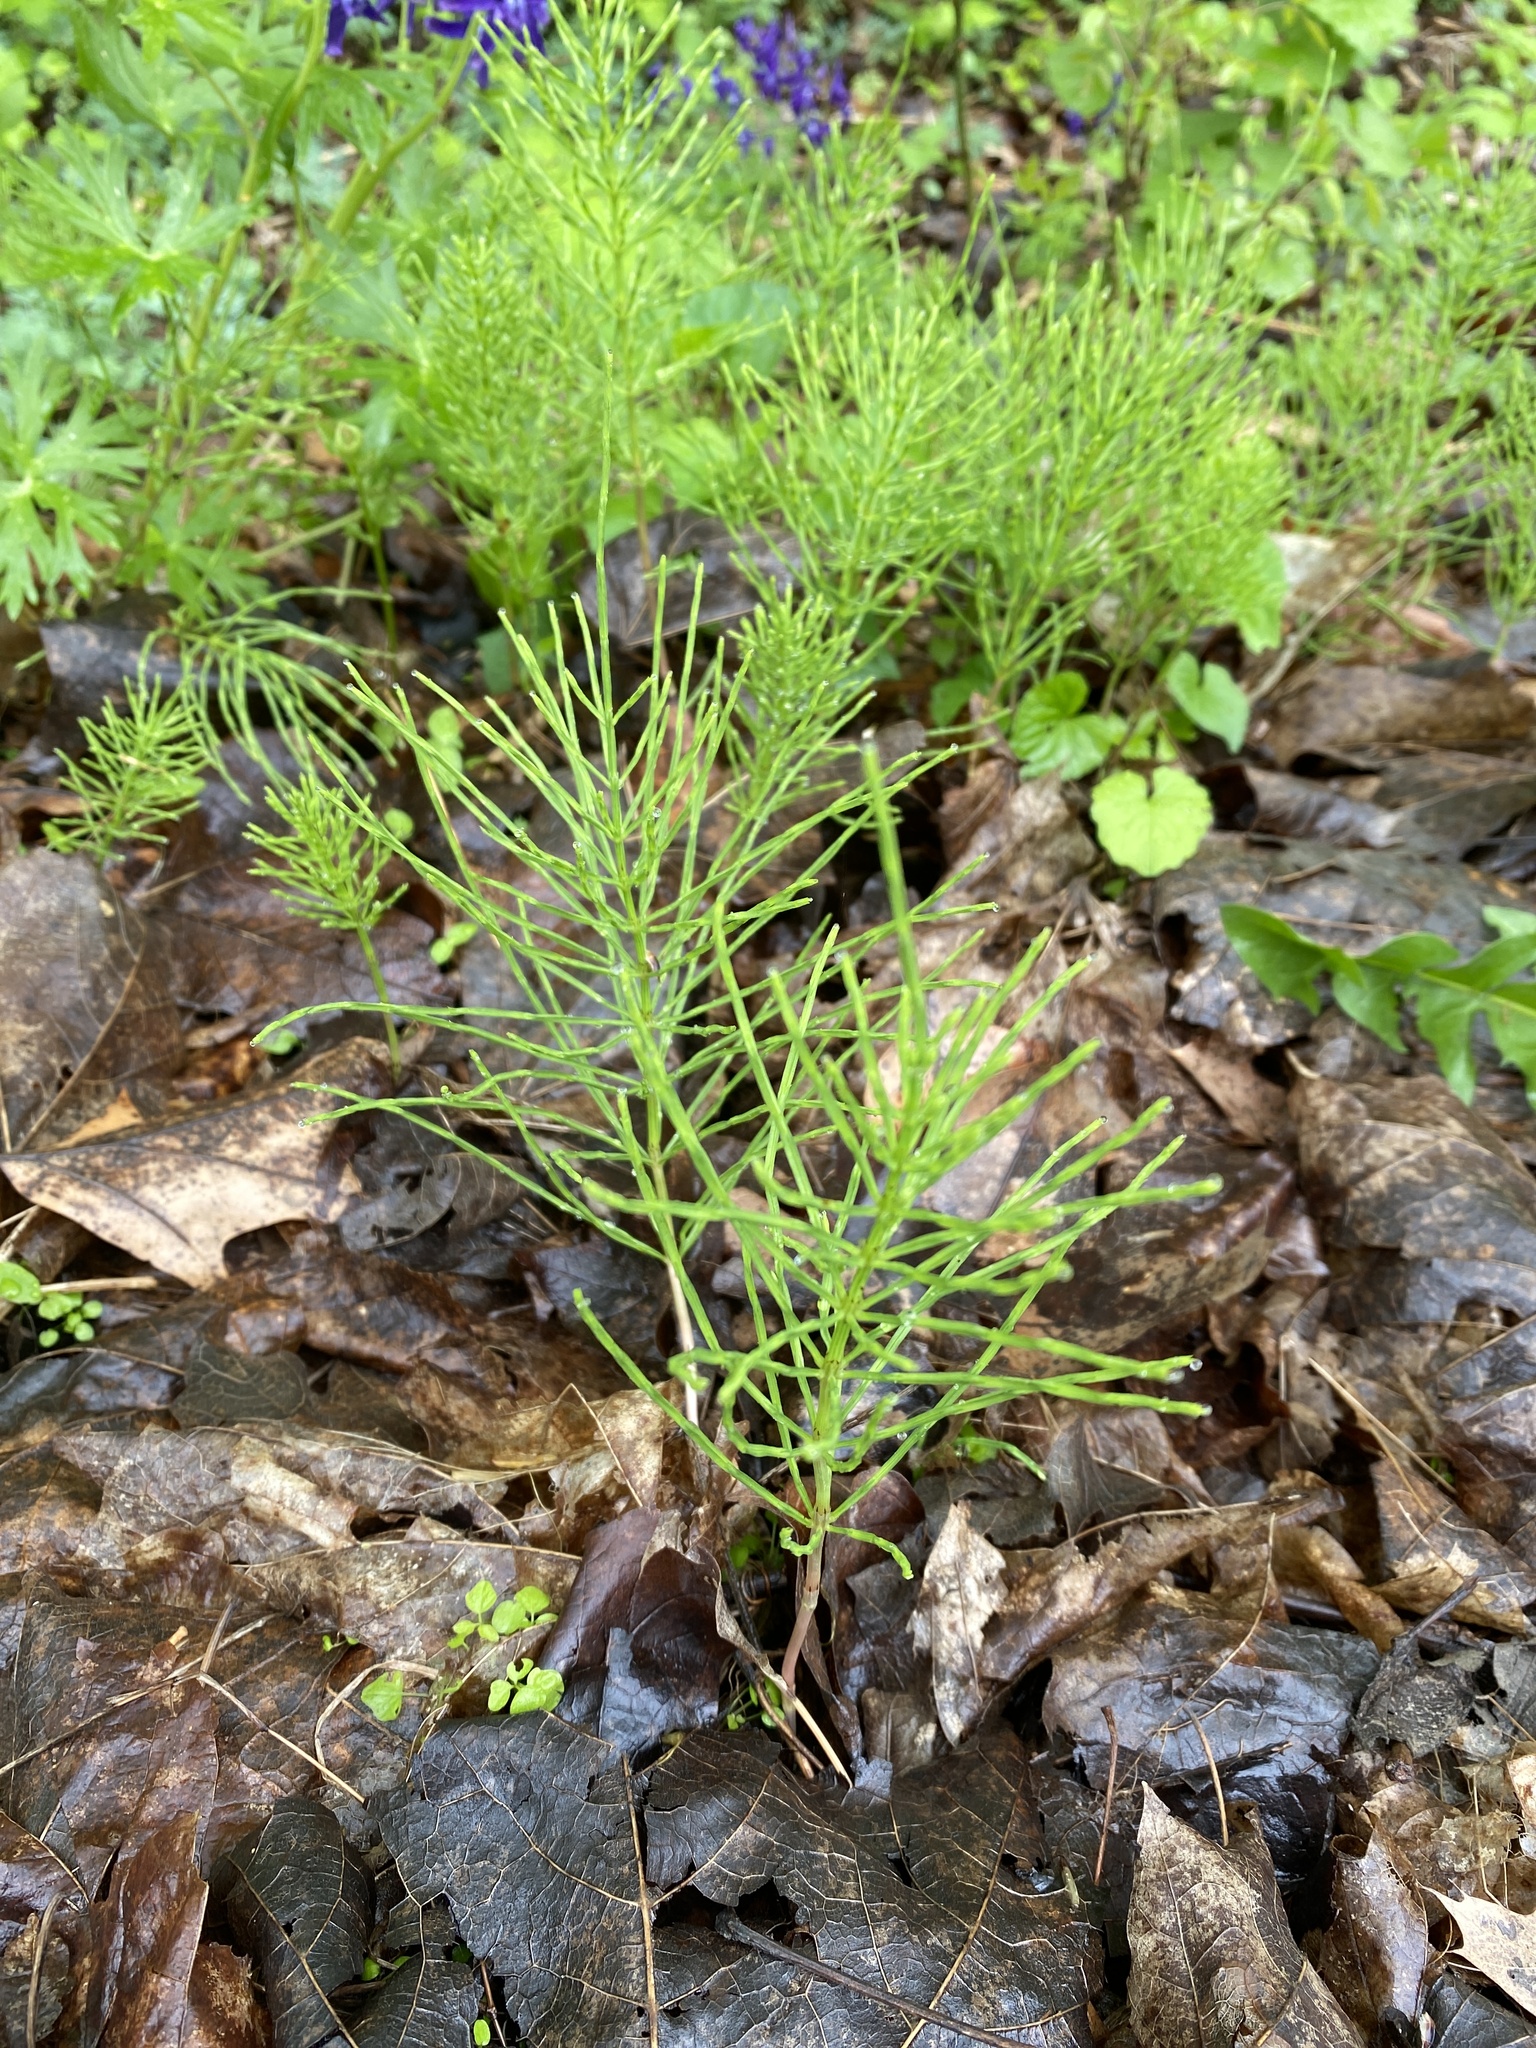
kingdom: Plantae
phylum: Tracheophyta
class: Polypodiopsida
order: Equisetales
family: Equisetaceae
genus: Equisetum
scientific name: Equisetum arvense
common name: Field horsetail
